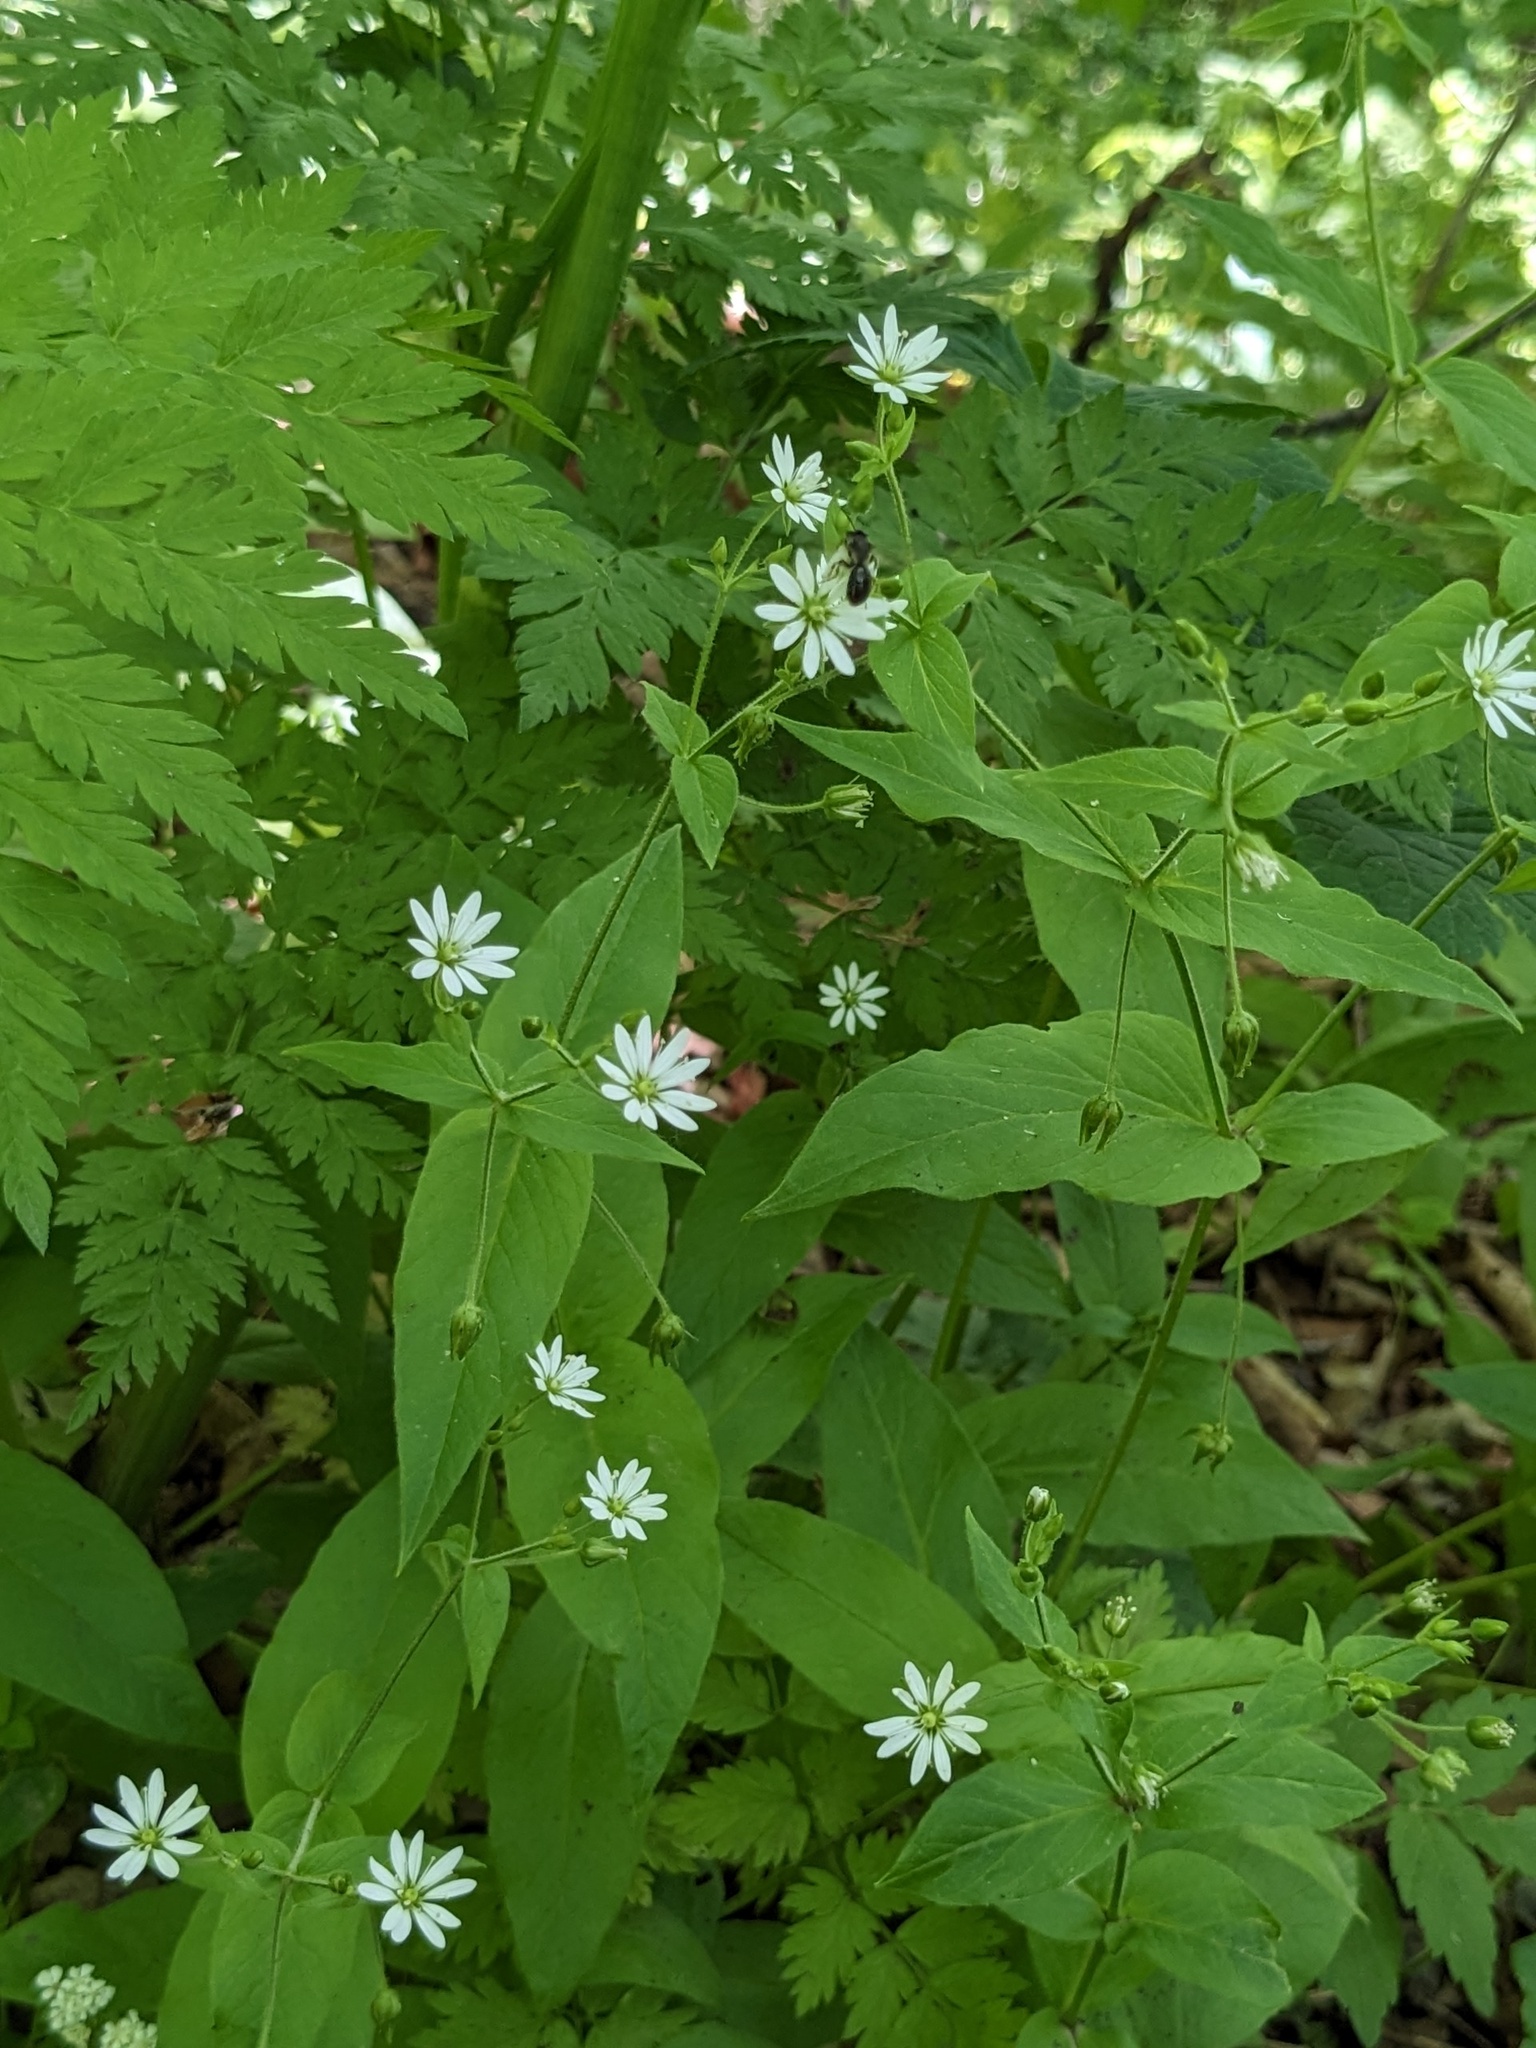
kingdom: Plantae
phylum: Tracheophyta
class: Magnoliopsida
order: Caryophyllales
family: Caryophyllaceae
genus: Stellaria
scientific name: Stellaria bungeana
